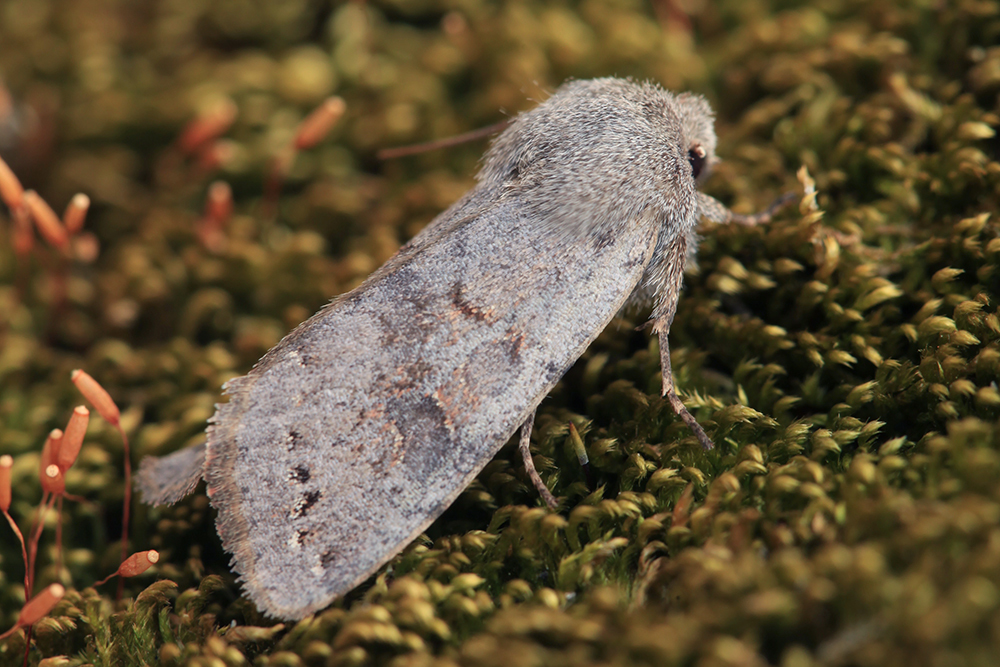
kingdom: Animalia
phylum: Arthropoda
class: Insecta
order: Lepidoptera
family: Noctuidae
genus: Orthosia
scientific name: Orthosia populeti
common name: Lead-coloured drab
